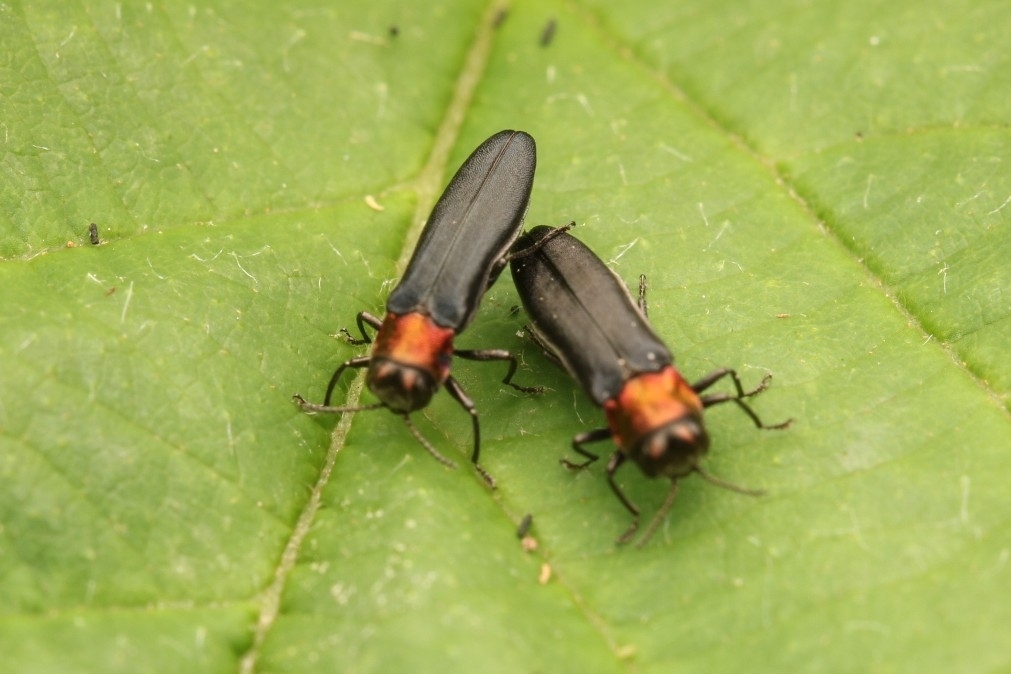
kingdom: Animalia
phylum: Arthropoda
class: Insecta
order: Coleoptera
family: Buprestidae
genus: Agrilus
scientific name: Agrilus ruficollis
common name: Red-necked cane borer beetle
